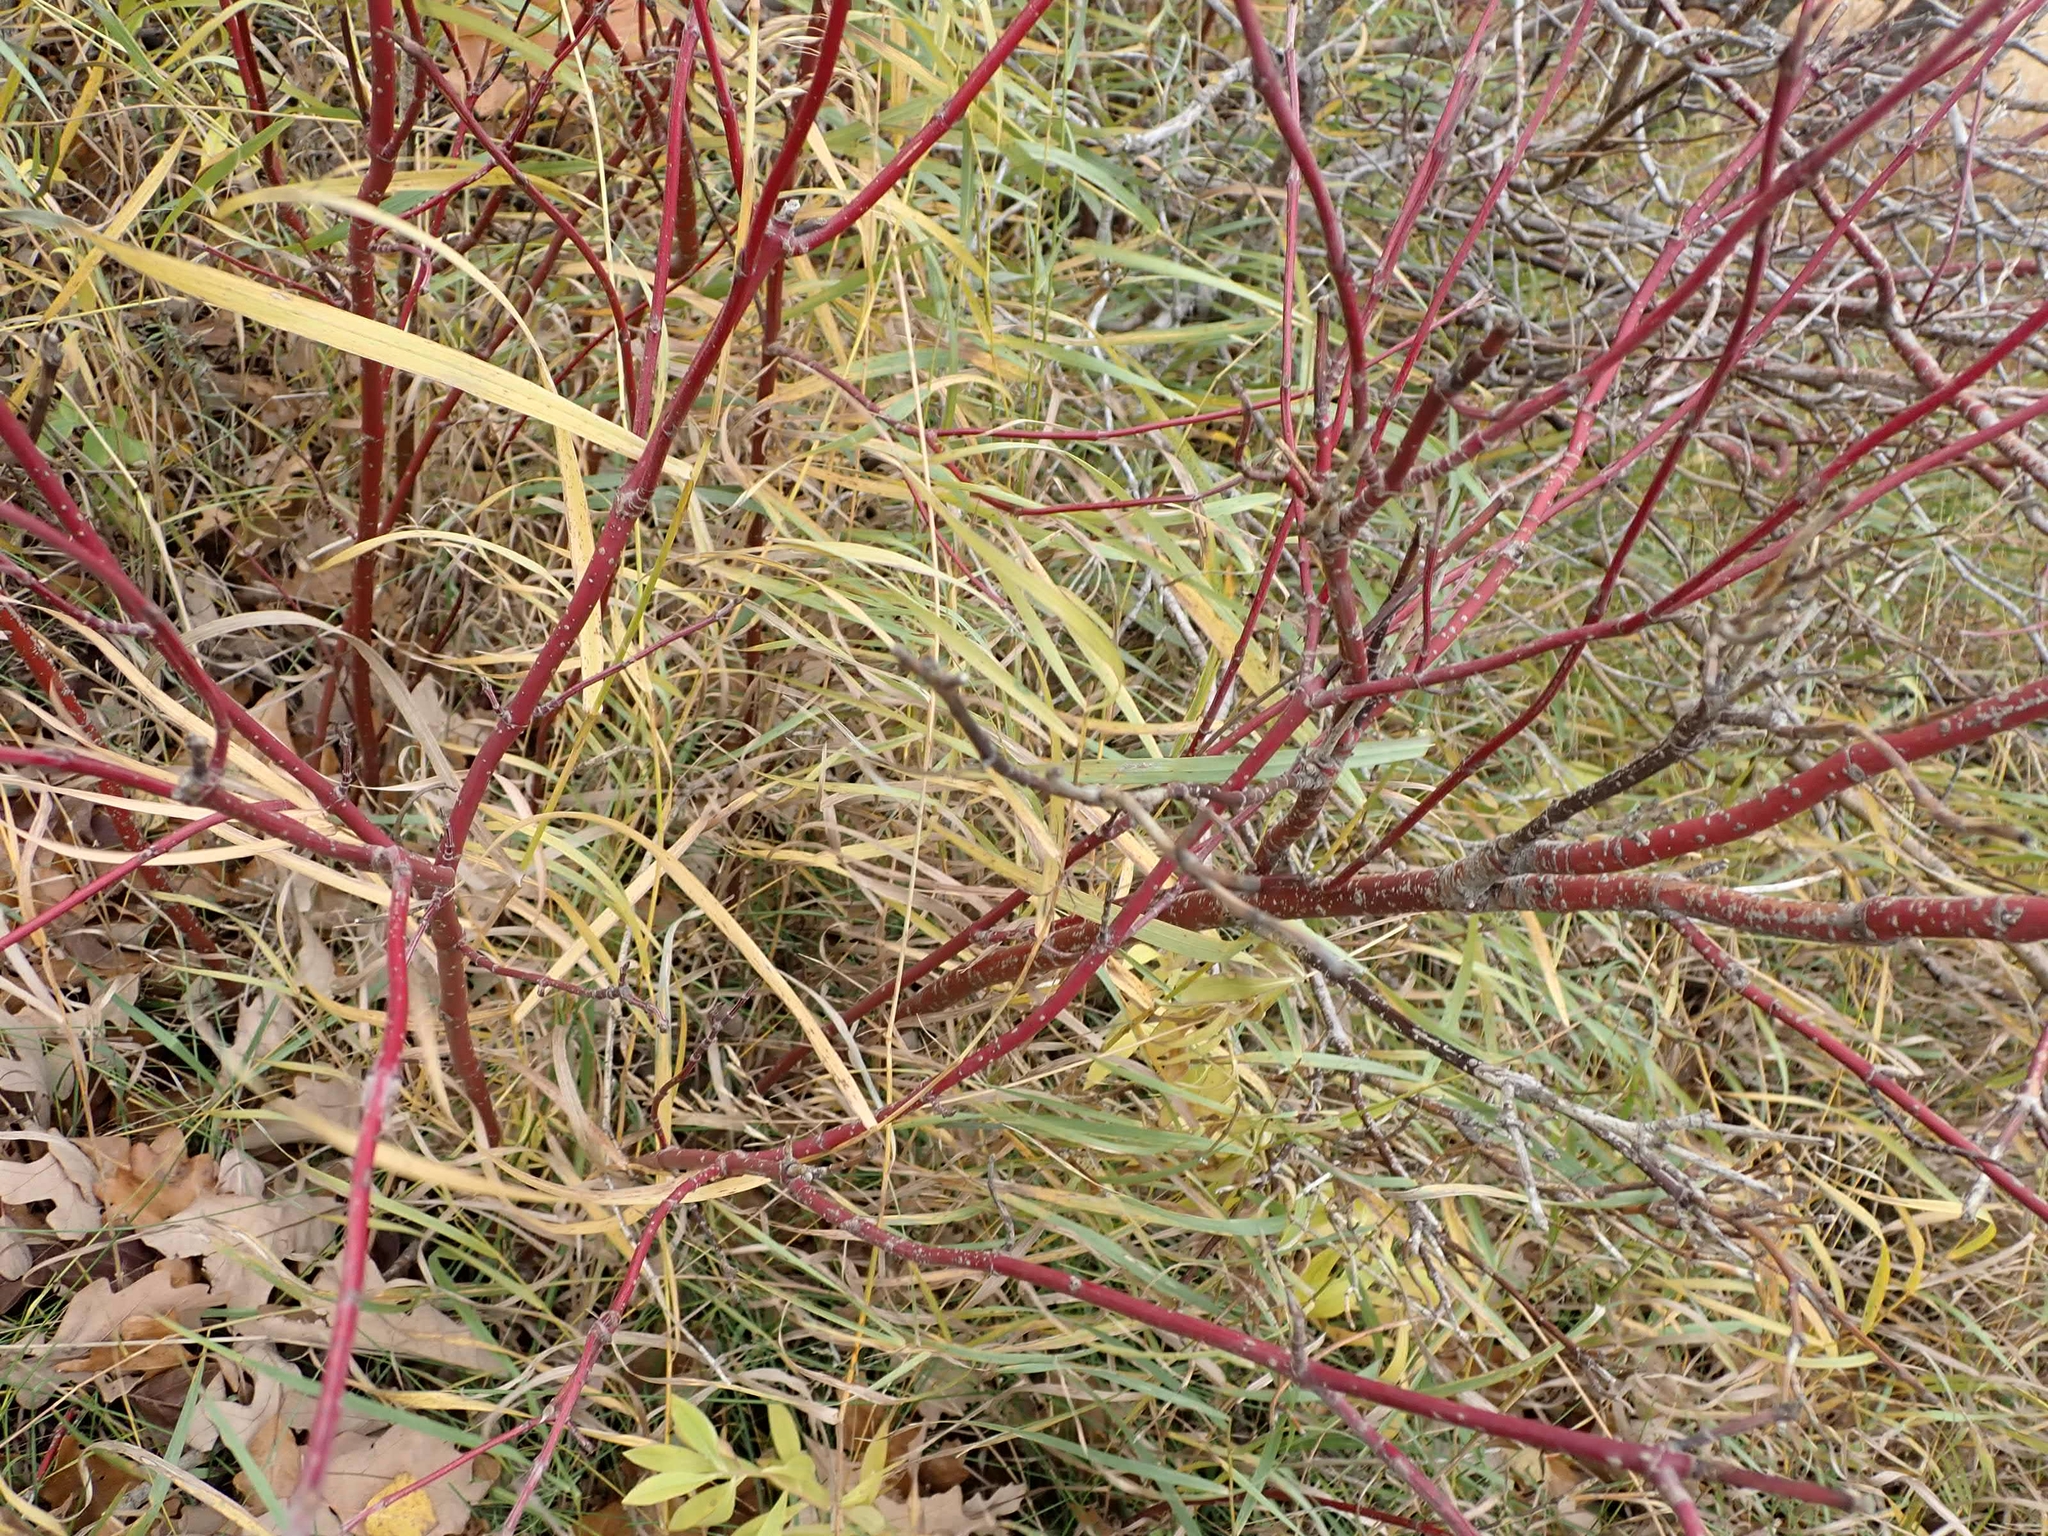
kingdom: Plantae
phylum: Tracheophyta
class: Magnoliopsida
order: Cornales
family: Cornaceae
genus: Cornus
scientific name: Cornus sericea
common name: Red-osier dogwood
